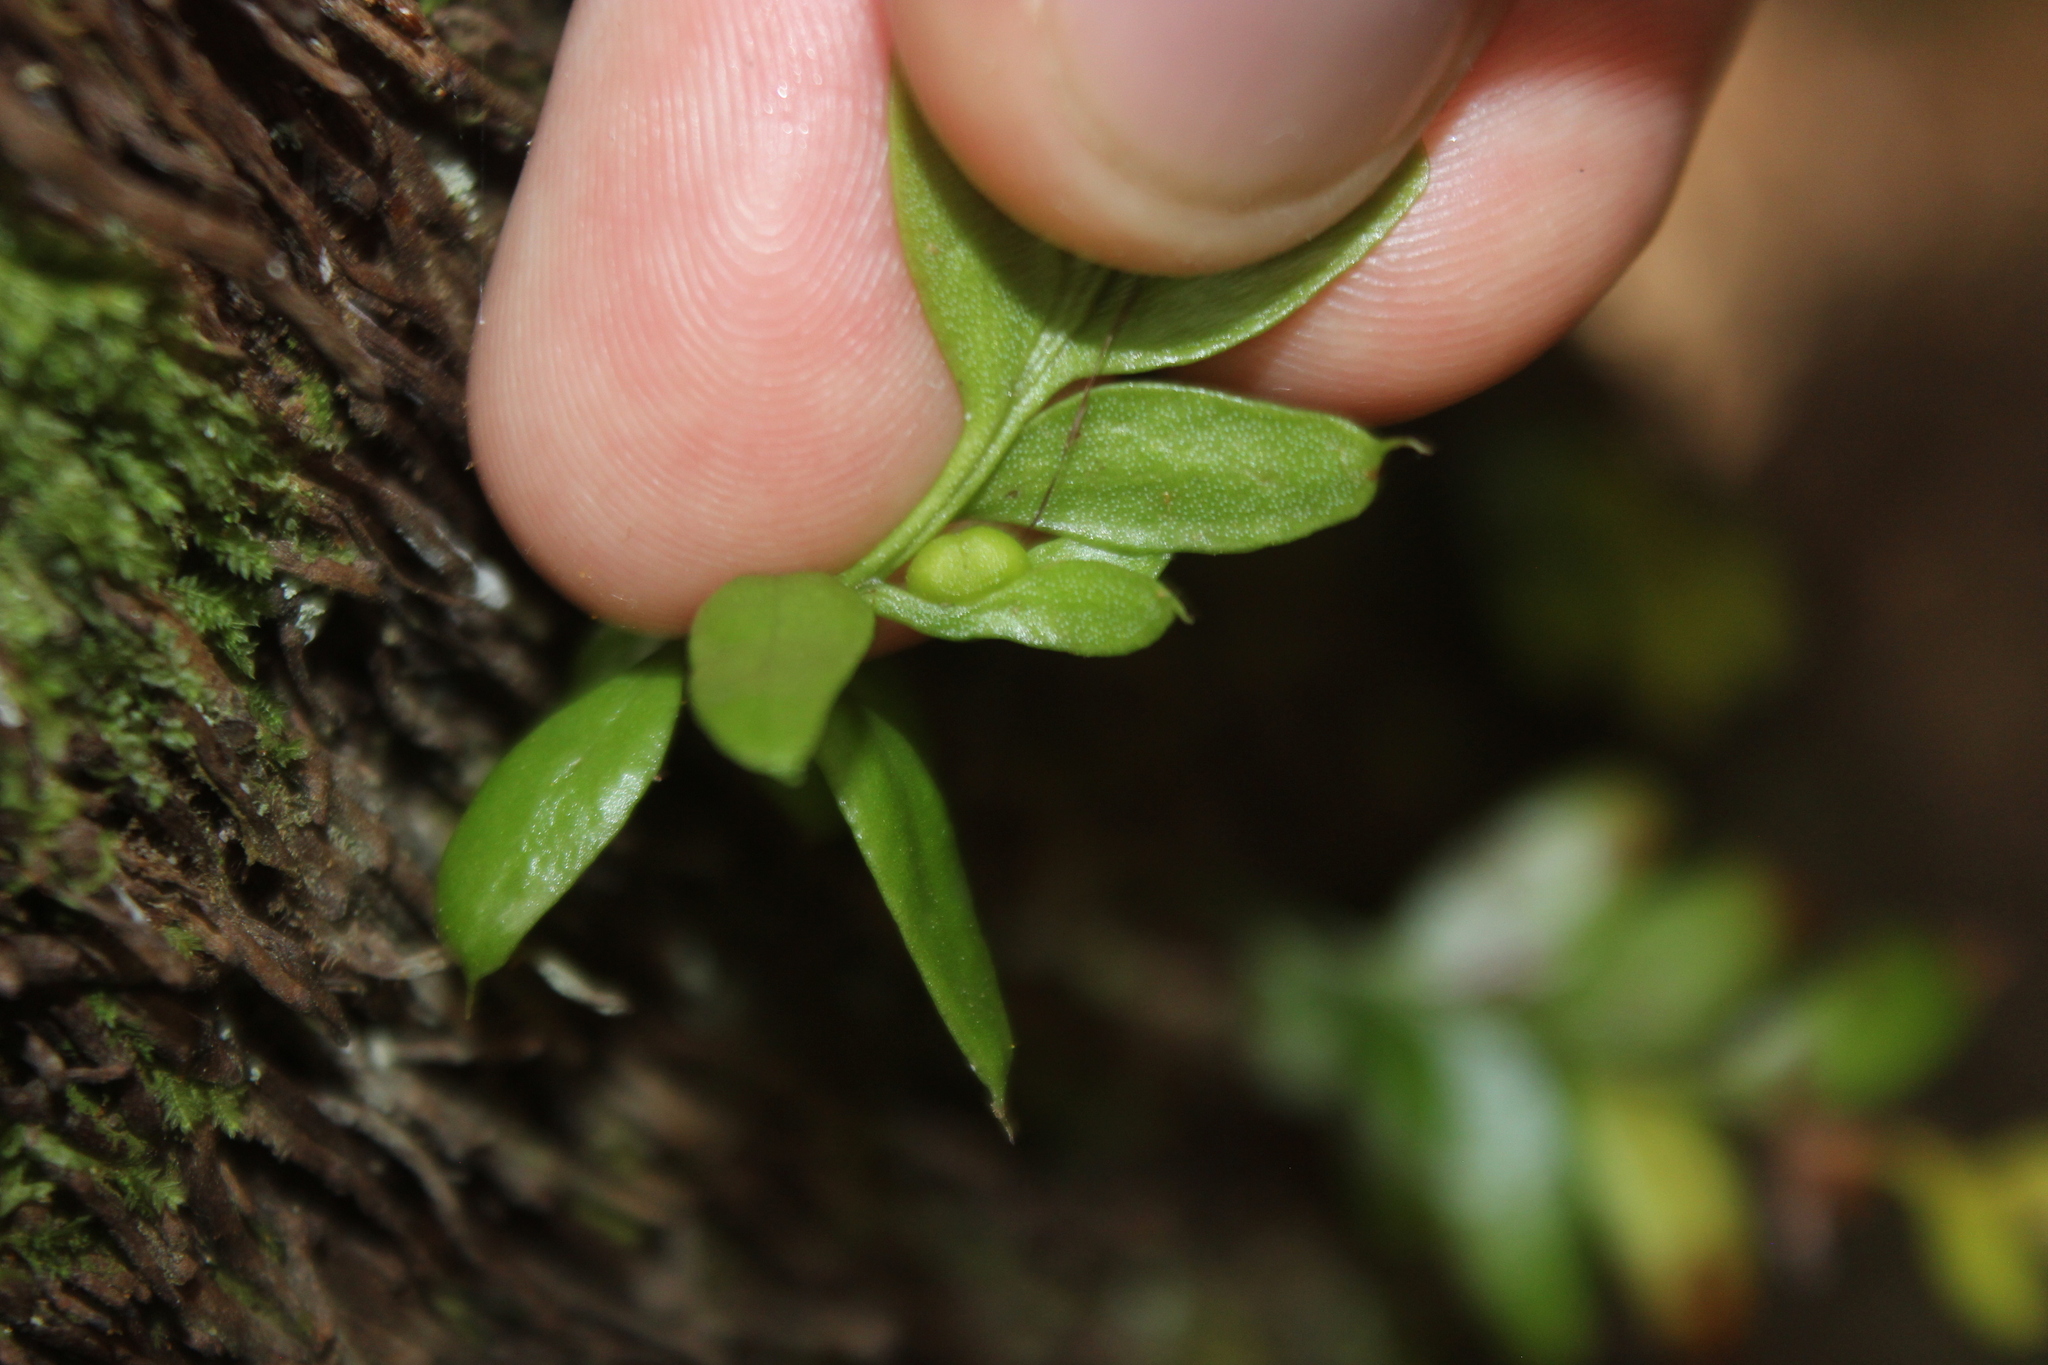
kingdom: Plantae
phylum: Tracheophyta
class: Polypodiopsida
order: Psilotales
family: Psilotaceae
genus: Tmesipteris
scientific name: Tmesipteris lanceolata
